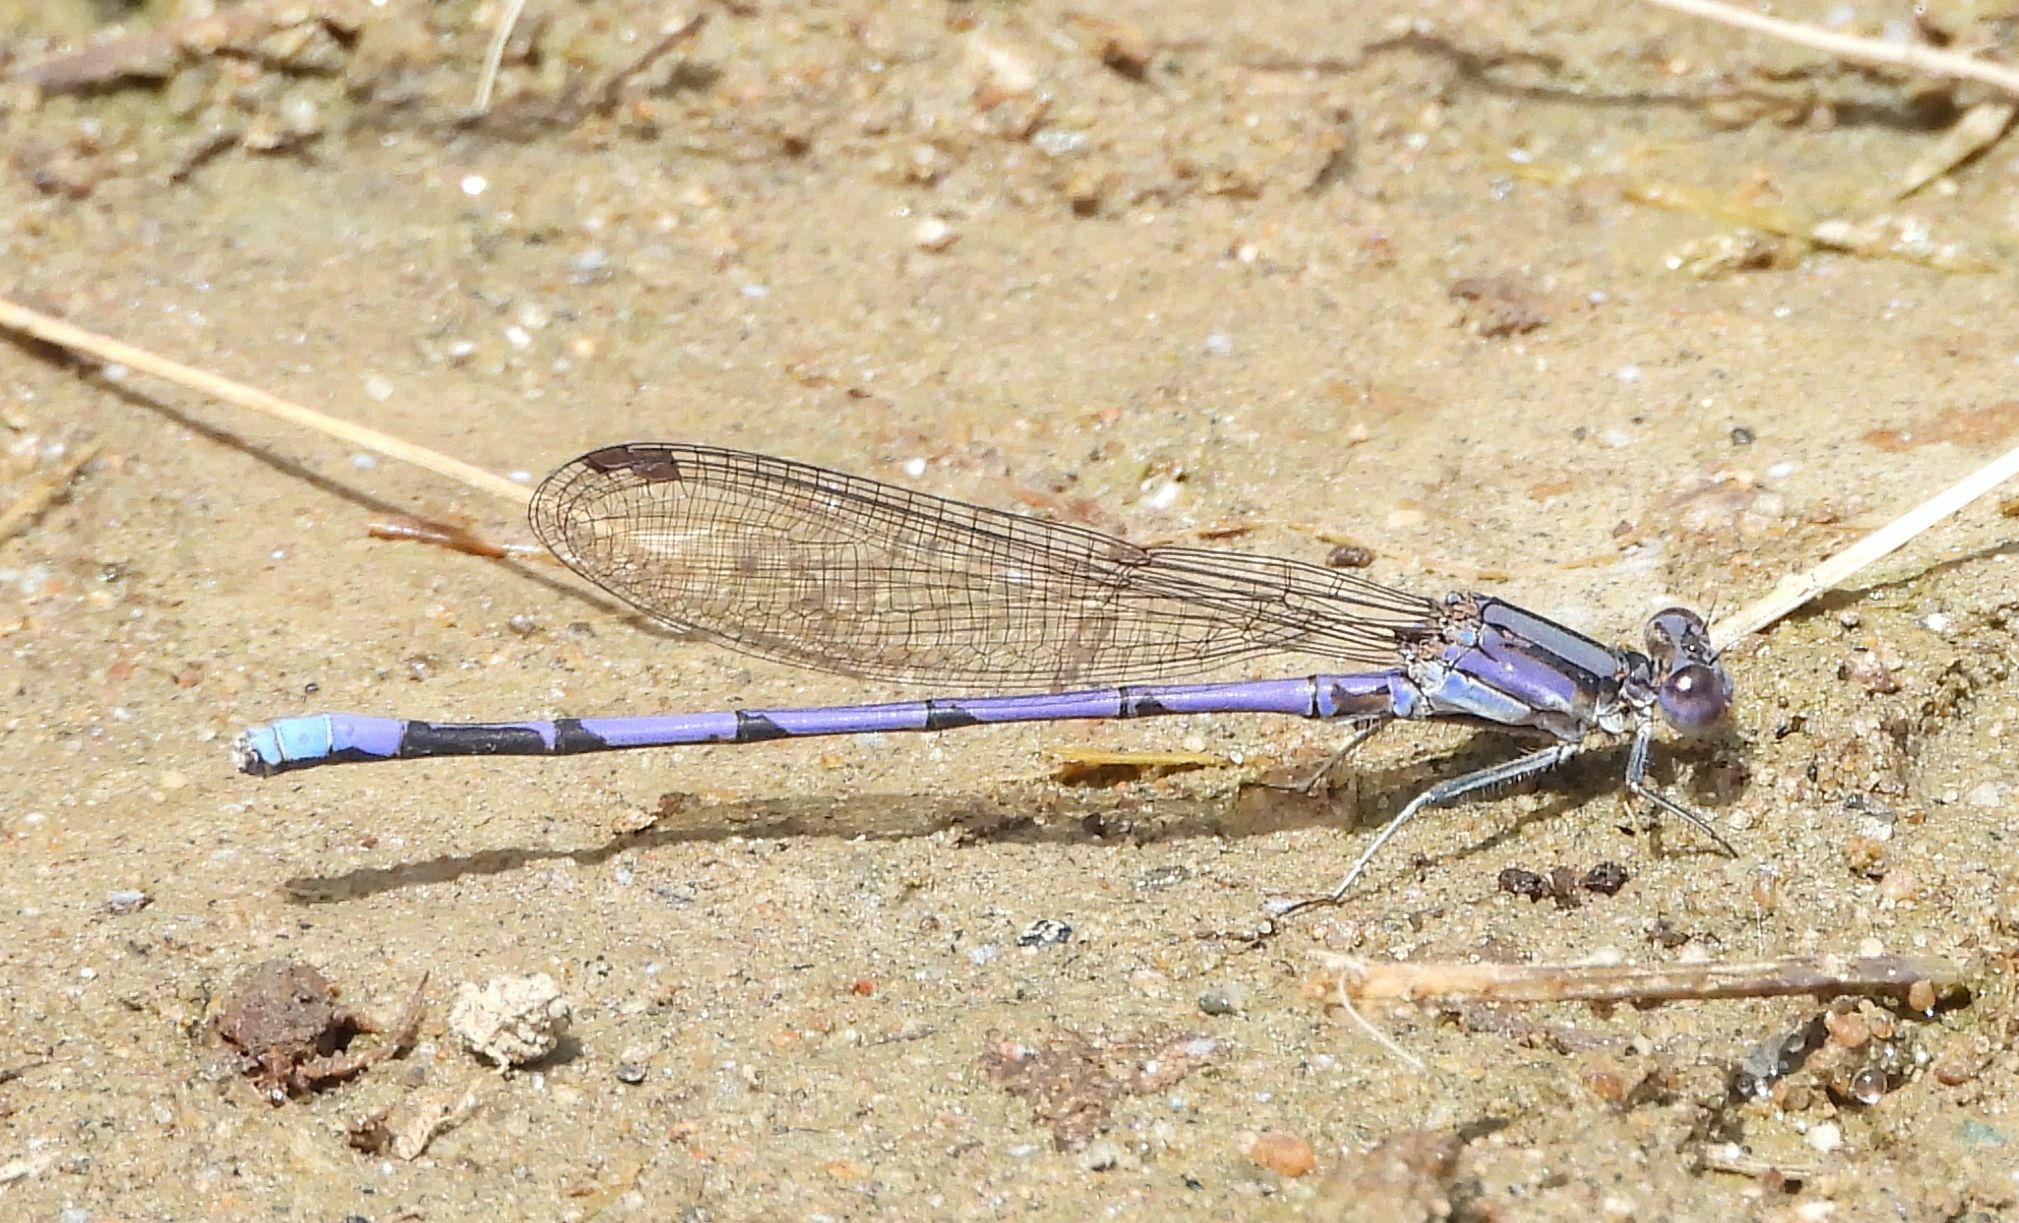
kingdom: Animalia
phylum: Arthropoda
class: Insecta
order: Odonata
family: Coenagrionidae
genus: Argia
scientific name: Argia fumipennis
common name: Variable dancer
